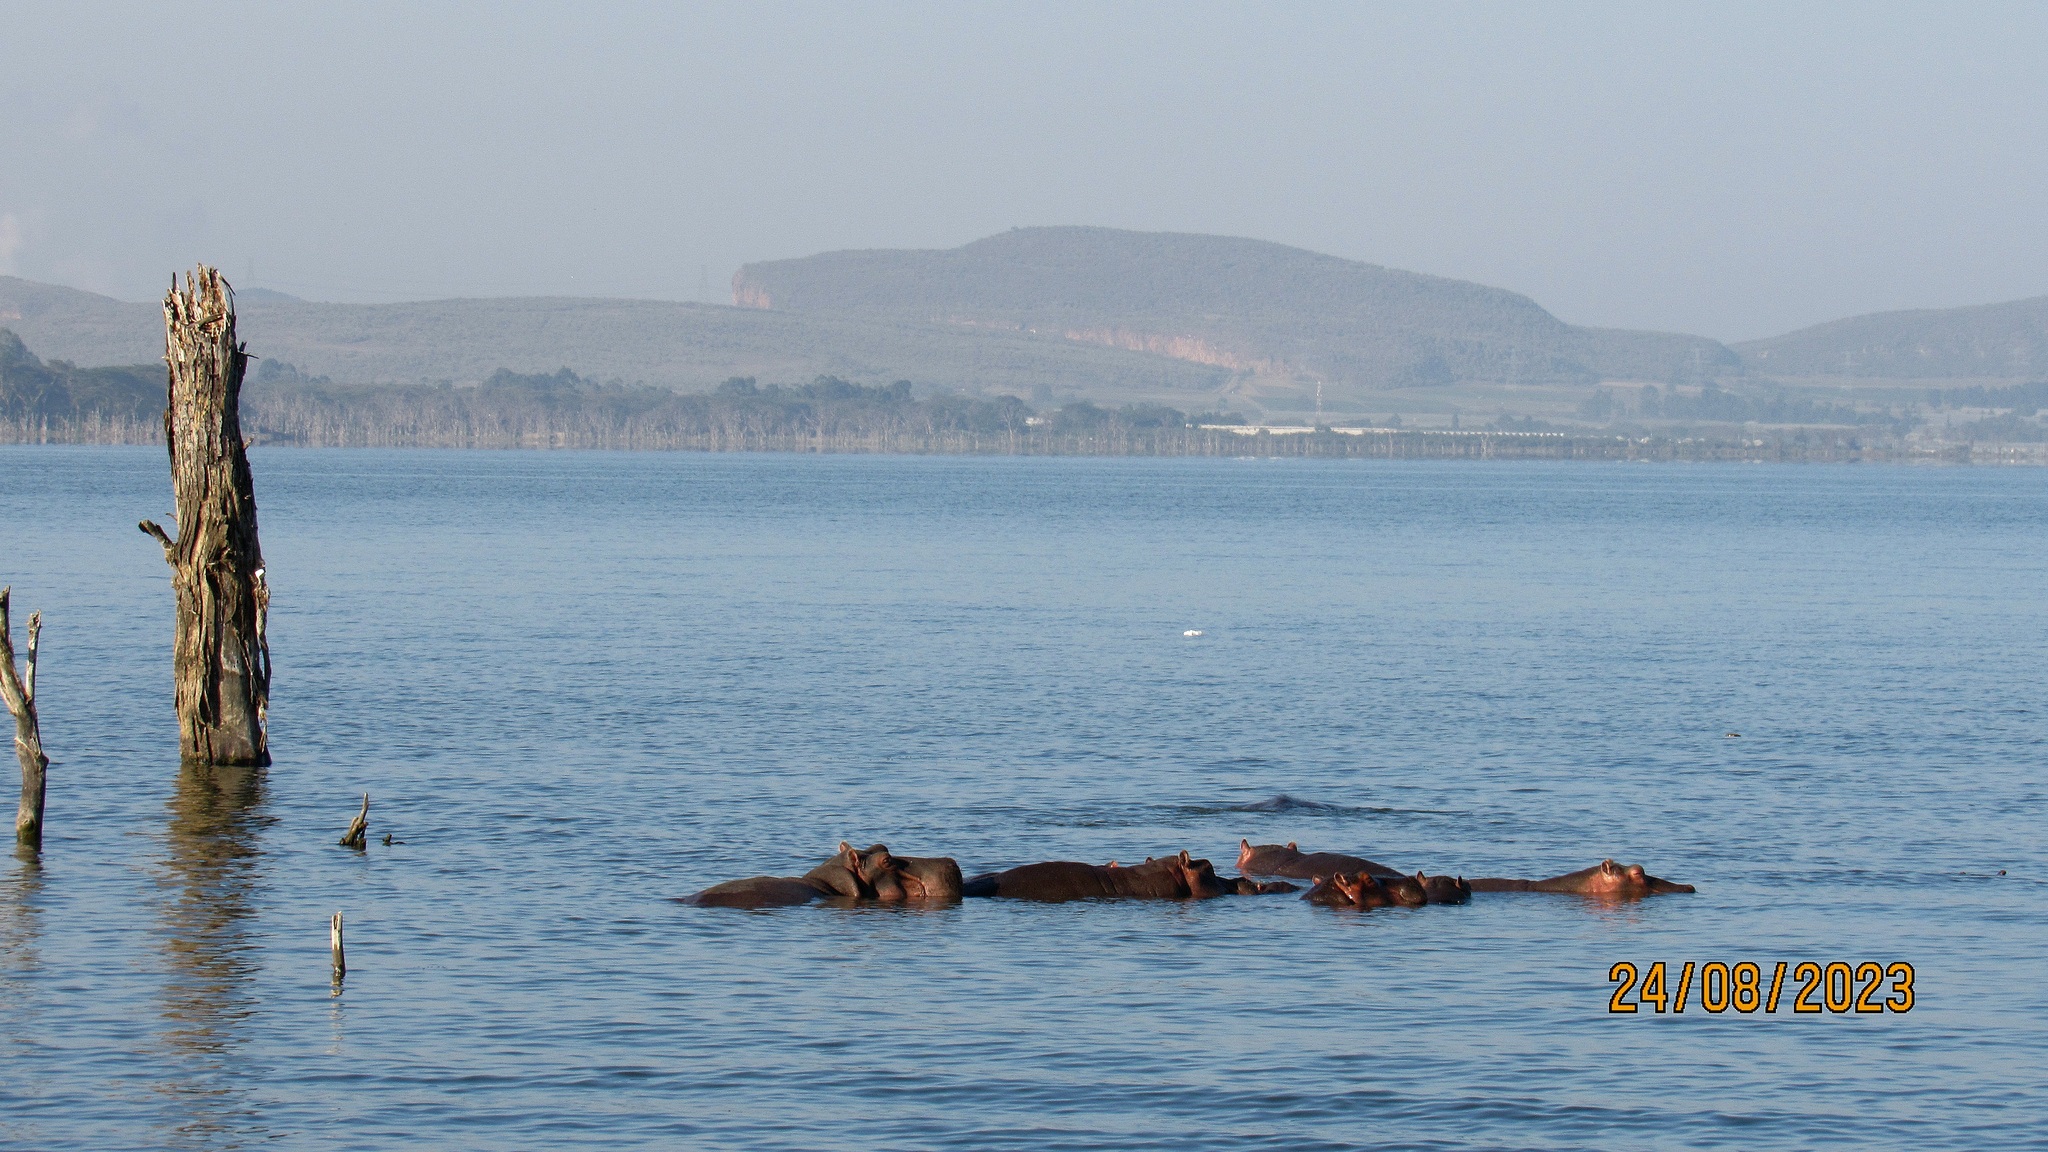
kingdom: Animalia
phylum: Chordata
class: Mammalia
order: Artiodactyla
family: Hippopotamidae
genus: Hippopotamus
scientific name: Hippopotamus amphibius
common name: Common hippopotamus
